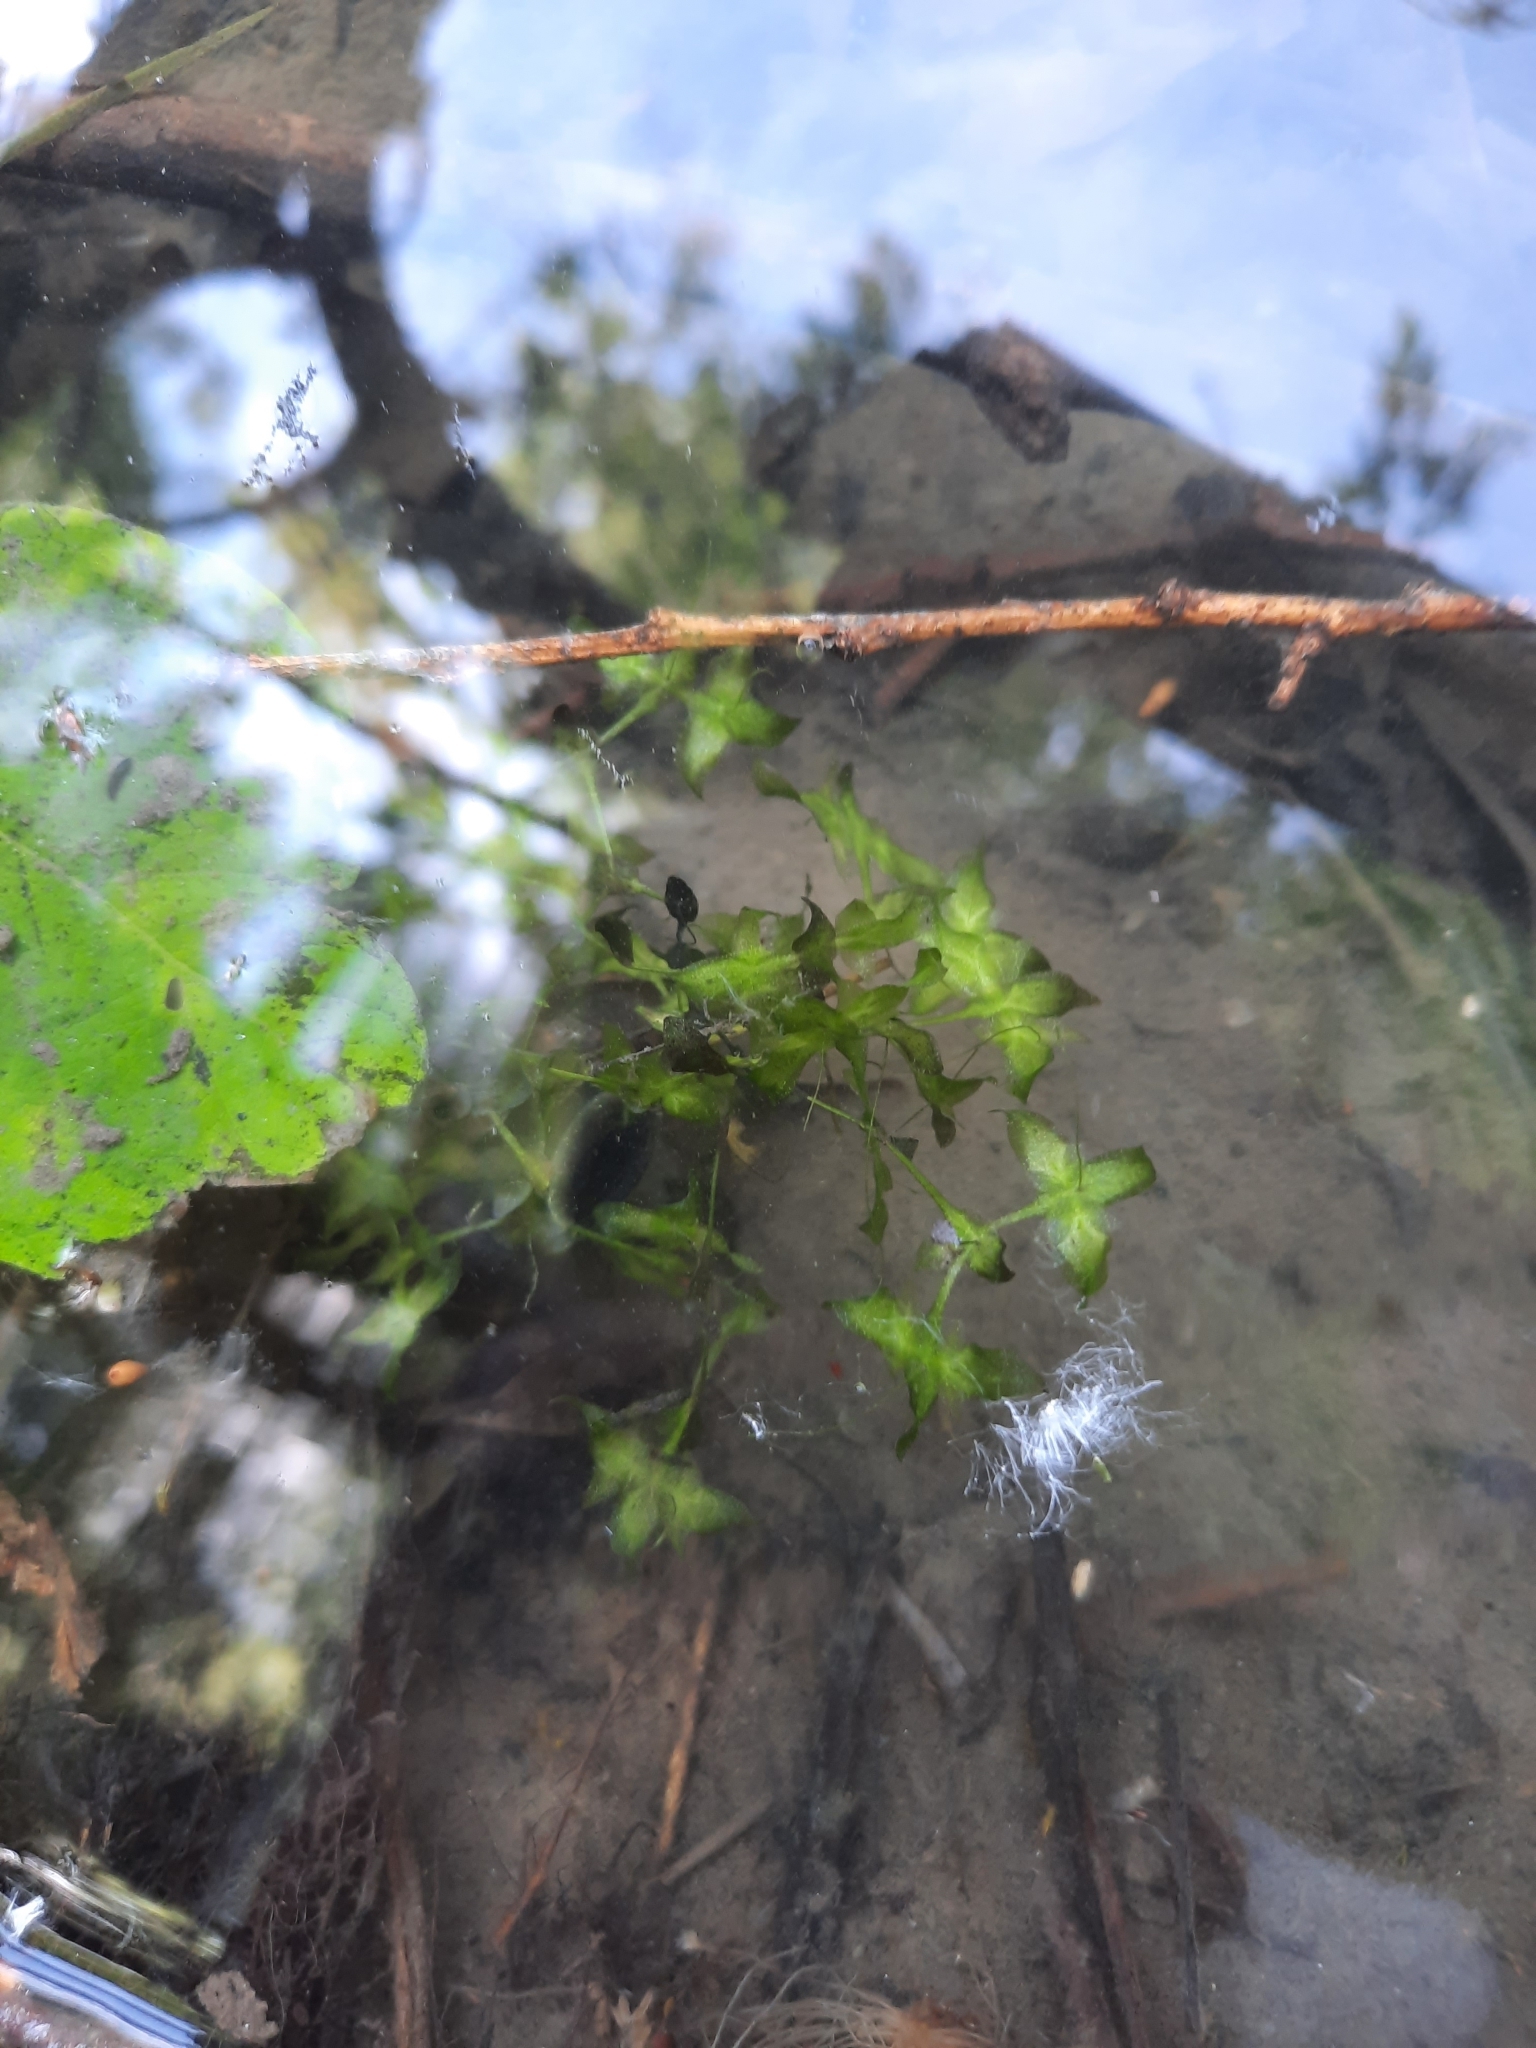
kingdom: Plantae
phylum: Tracheophyta
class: Liliopsida
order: Alismatales
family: Araceae
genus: Lemna
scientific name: Lemna trisulca
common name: Ivy-leaved duckweed
